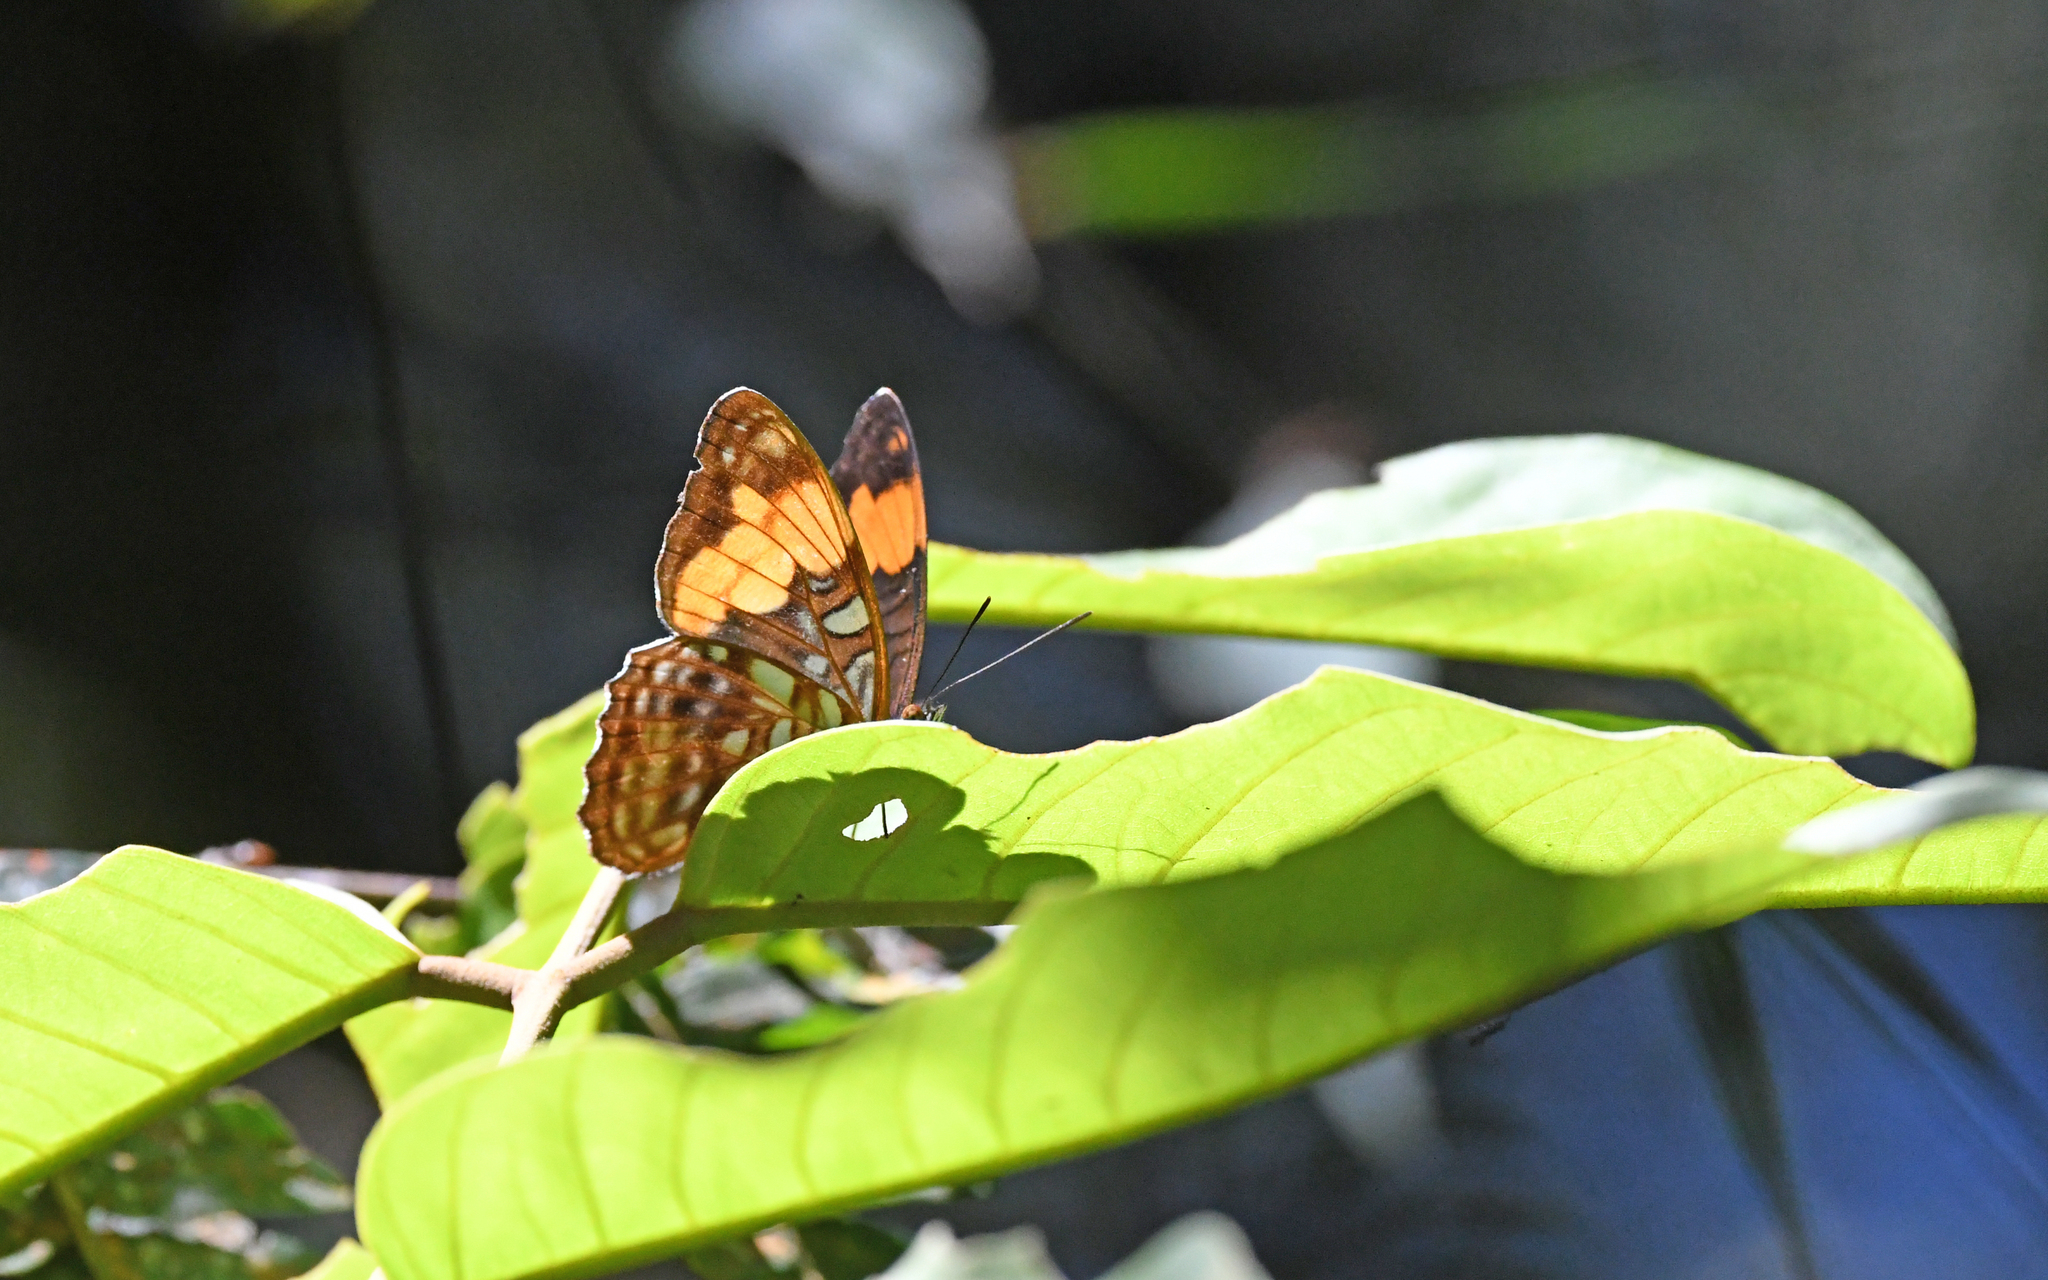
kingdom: Animalia
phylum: Arthropoda
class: Insecta
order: Lepidoptera
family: Nymphalidae
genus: Limenitis
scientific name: Limenitis saundersii
